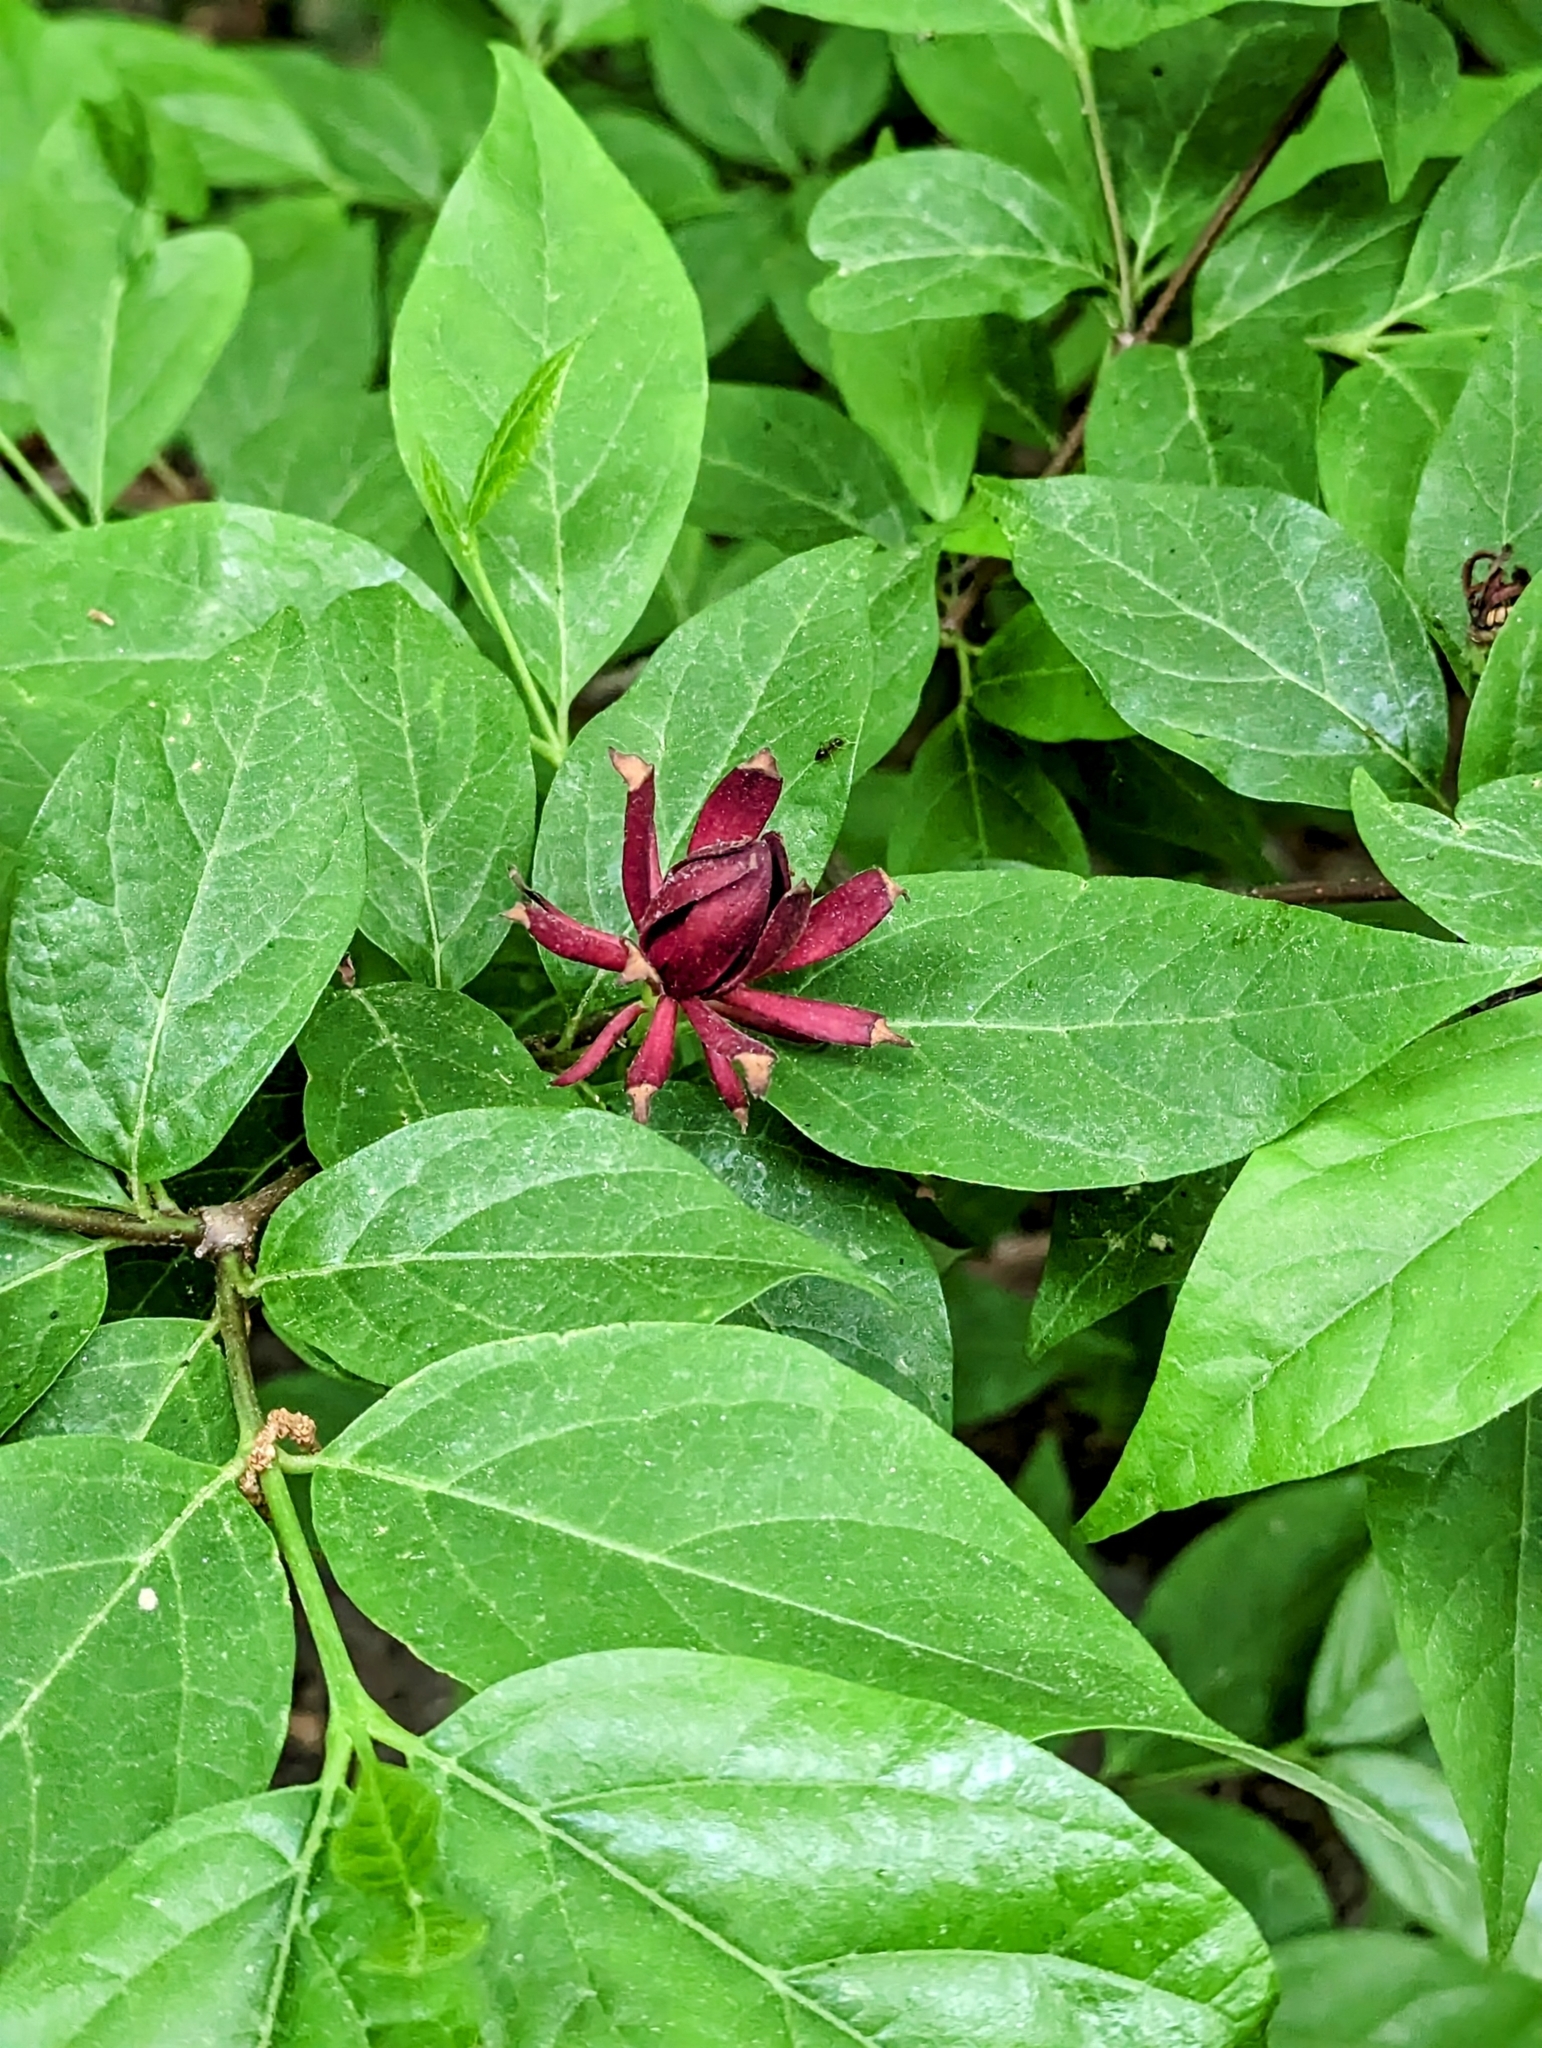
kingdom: Plantae
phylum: Tracheophyta
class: Magnoliopsida
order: Laurales
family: Calycanthaceae
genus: Calycanthus
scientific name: Calycanthus floridus
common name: Carolina-allspice
